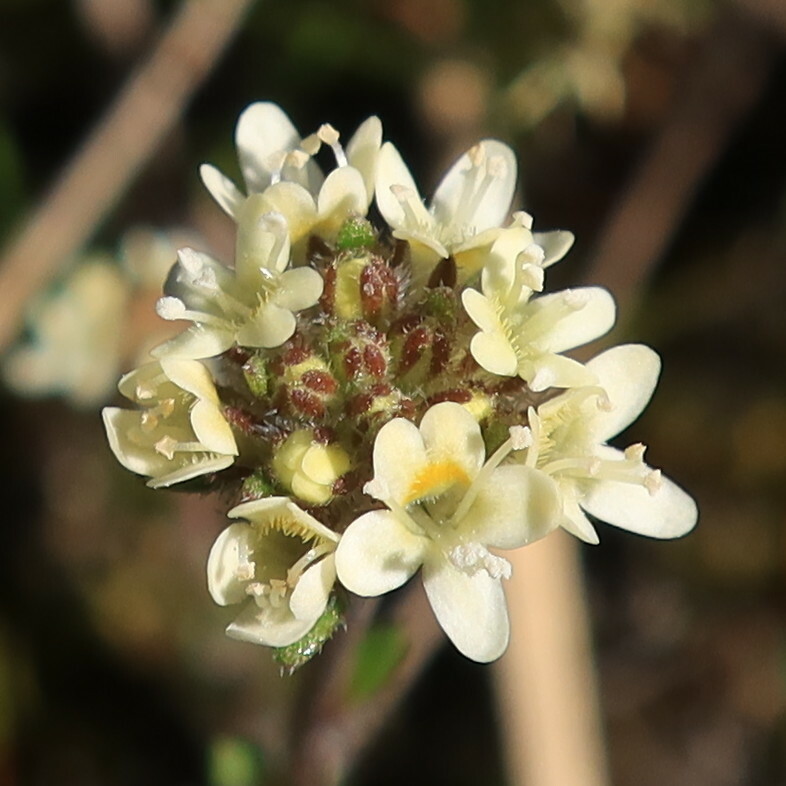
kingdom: Plantae
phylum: Tracheophyta
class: Magnoliopsida
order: Lamiales
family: Scrophulariaceae
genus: Phyllopodium
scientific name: Phyllopodium capillare
